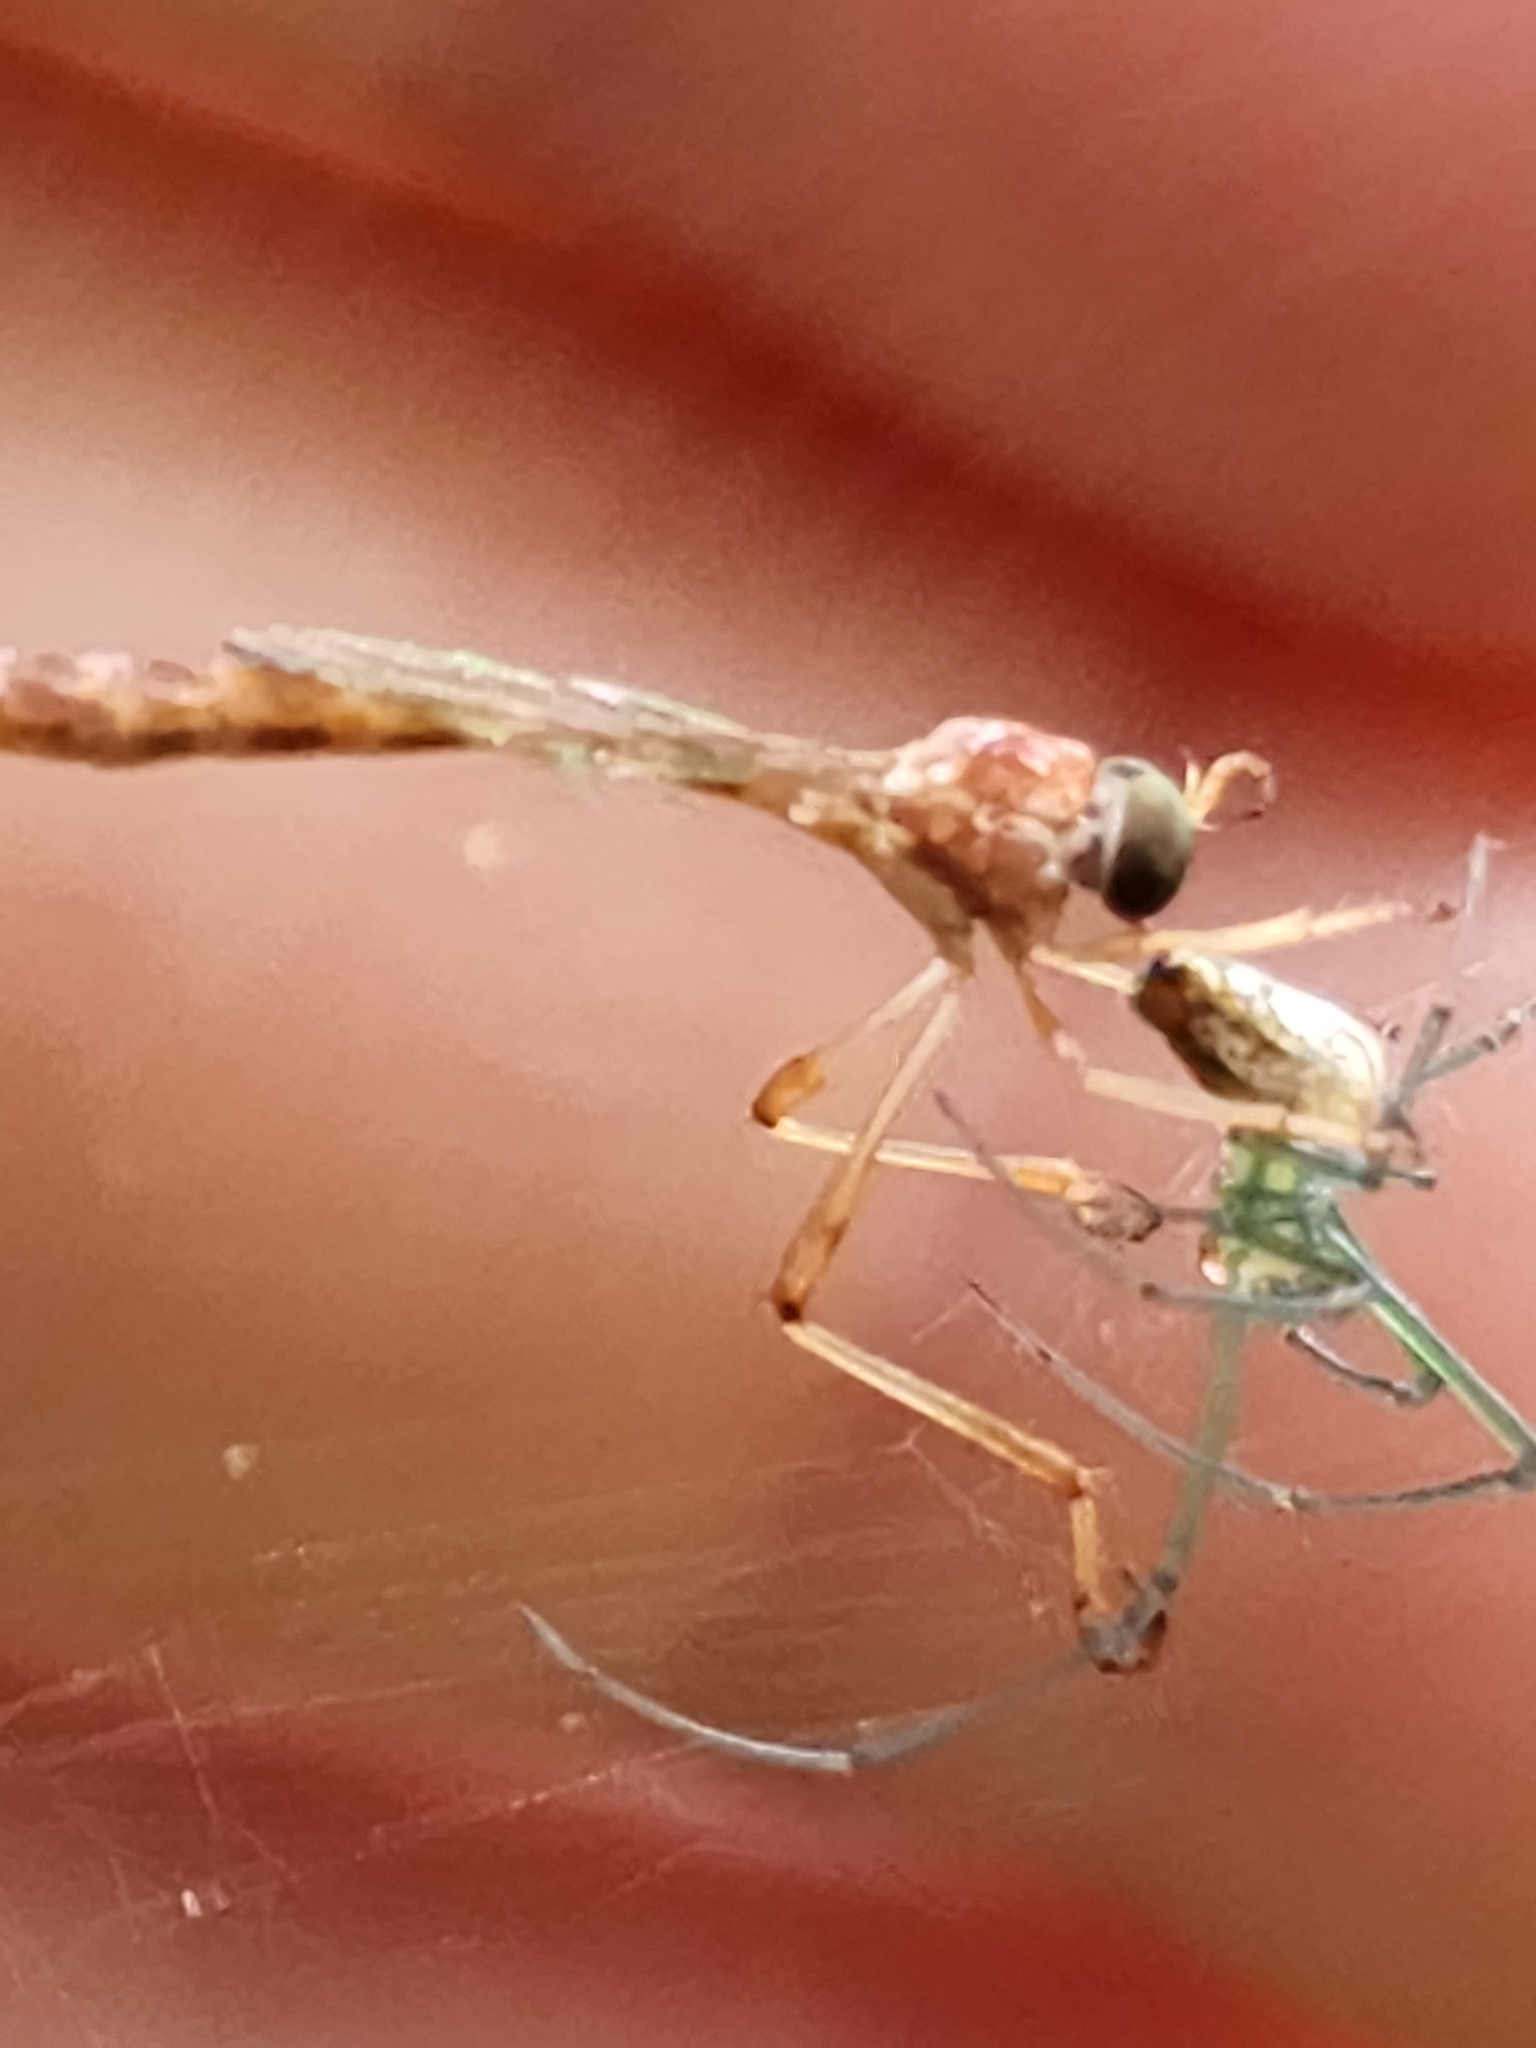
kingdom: Animalia
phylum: Arthropoda
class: Insecta
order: Diptera
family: Asilidae
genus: Tipulogaster
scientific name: Tipulogaster glabrata
